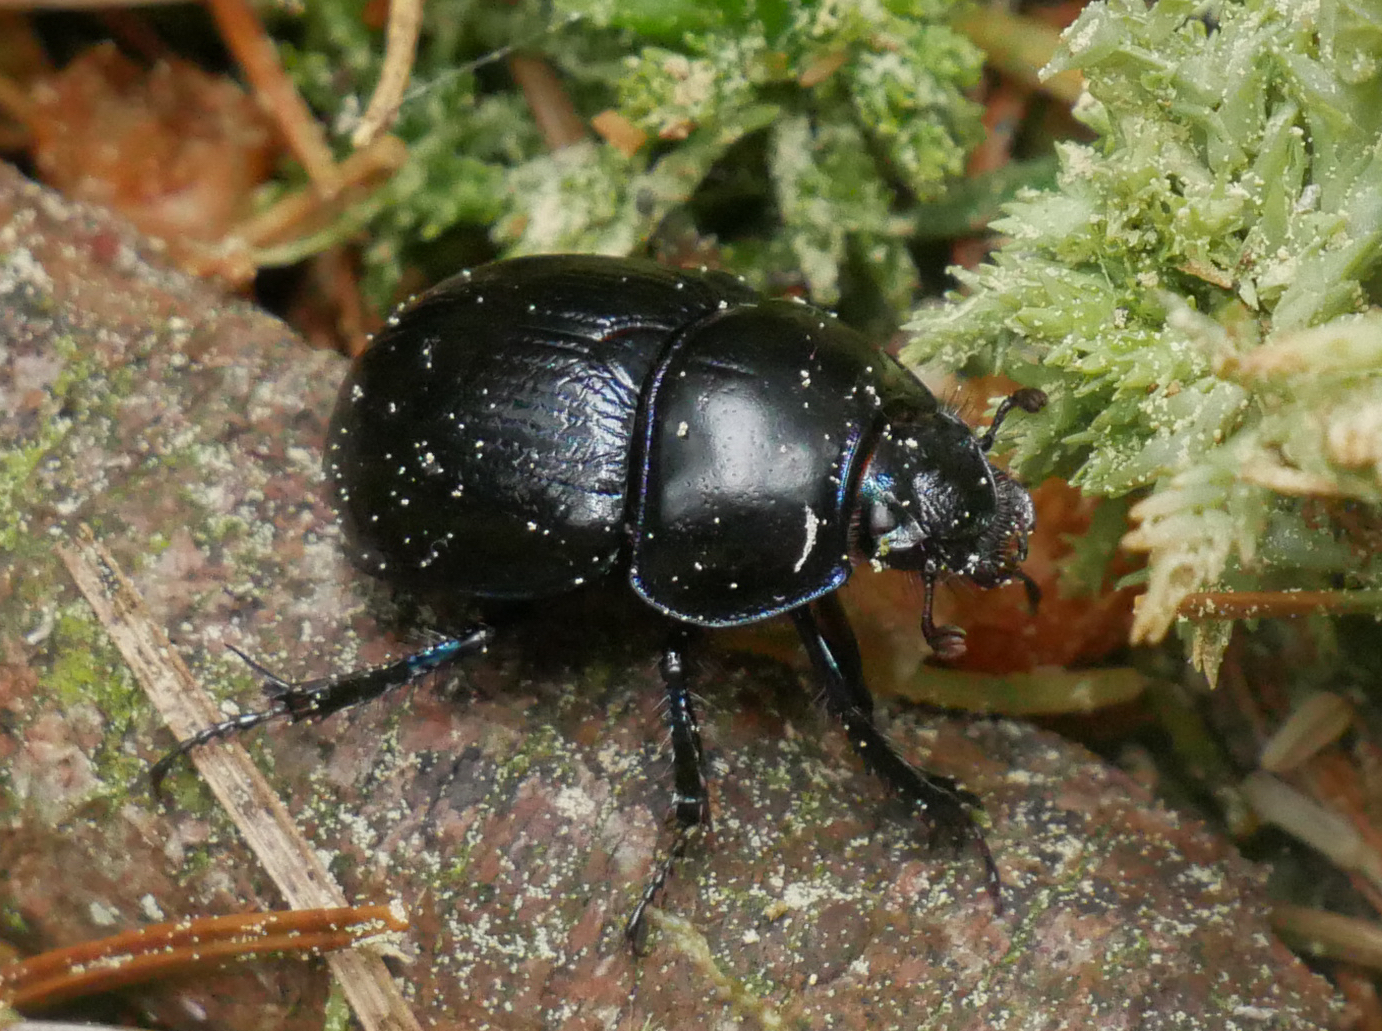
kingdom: Animalia
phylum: Arthropoda
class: Insecta
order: Coleoptera
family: Geotrupidae
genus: Anoplotrupes
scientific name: Anoplotrupes stercorosus
